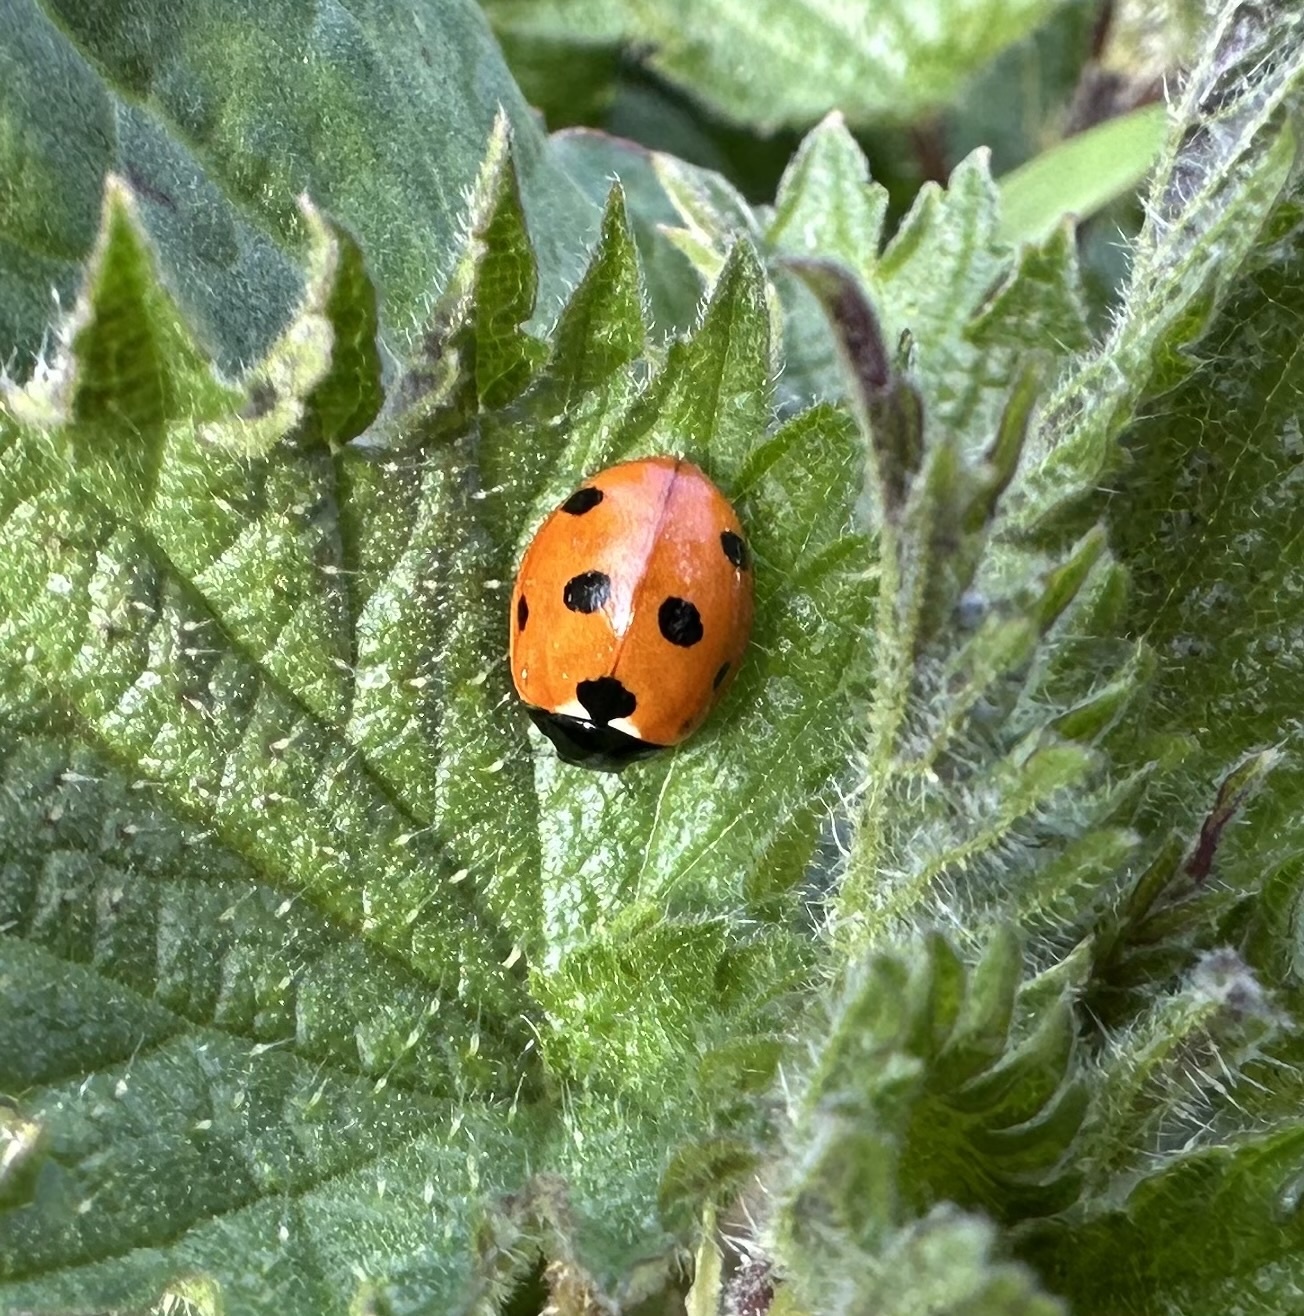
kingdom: Animalia
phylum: Arthropoda
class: Insecta
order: Coleoptera
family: Coccinellidae
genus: Coccinella
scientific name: Coccinella septempunctata
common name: Sevenspotted lady beetle
